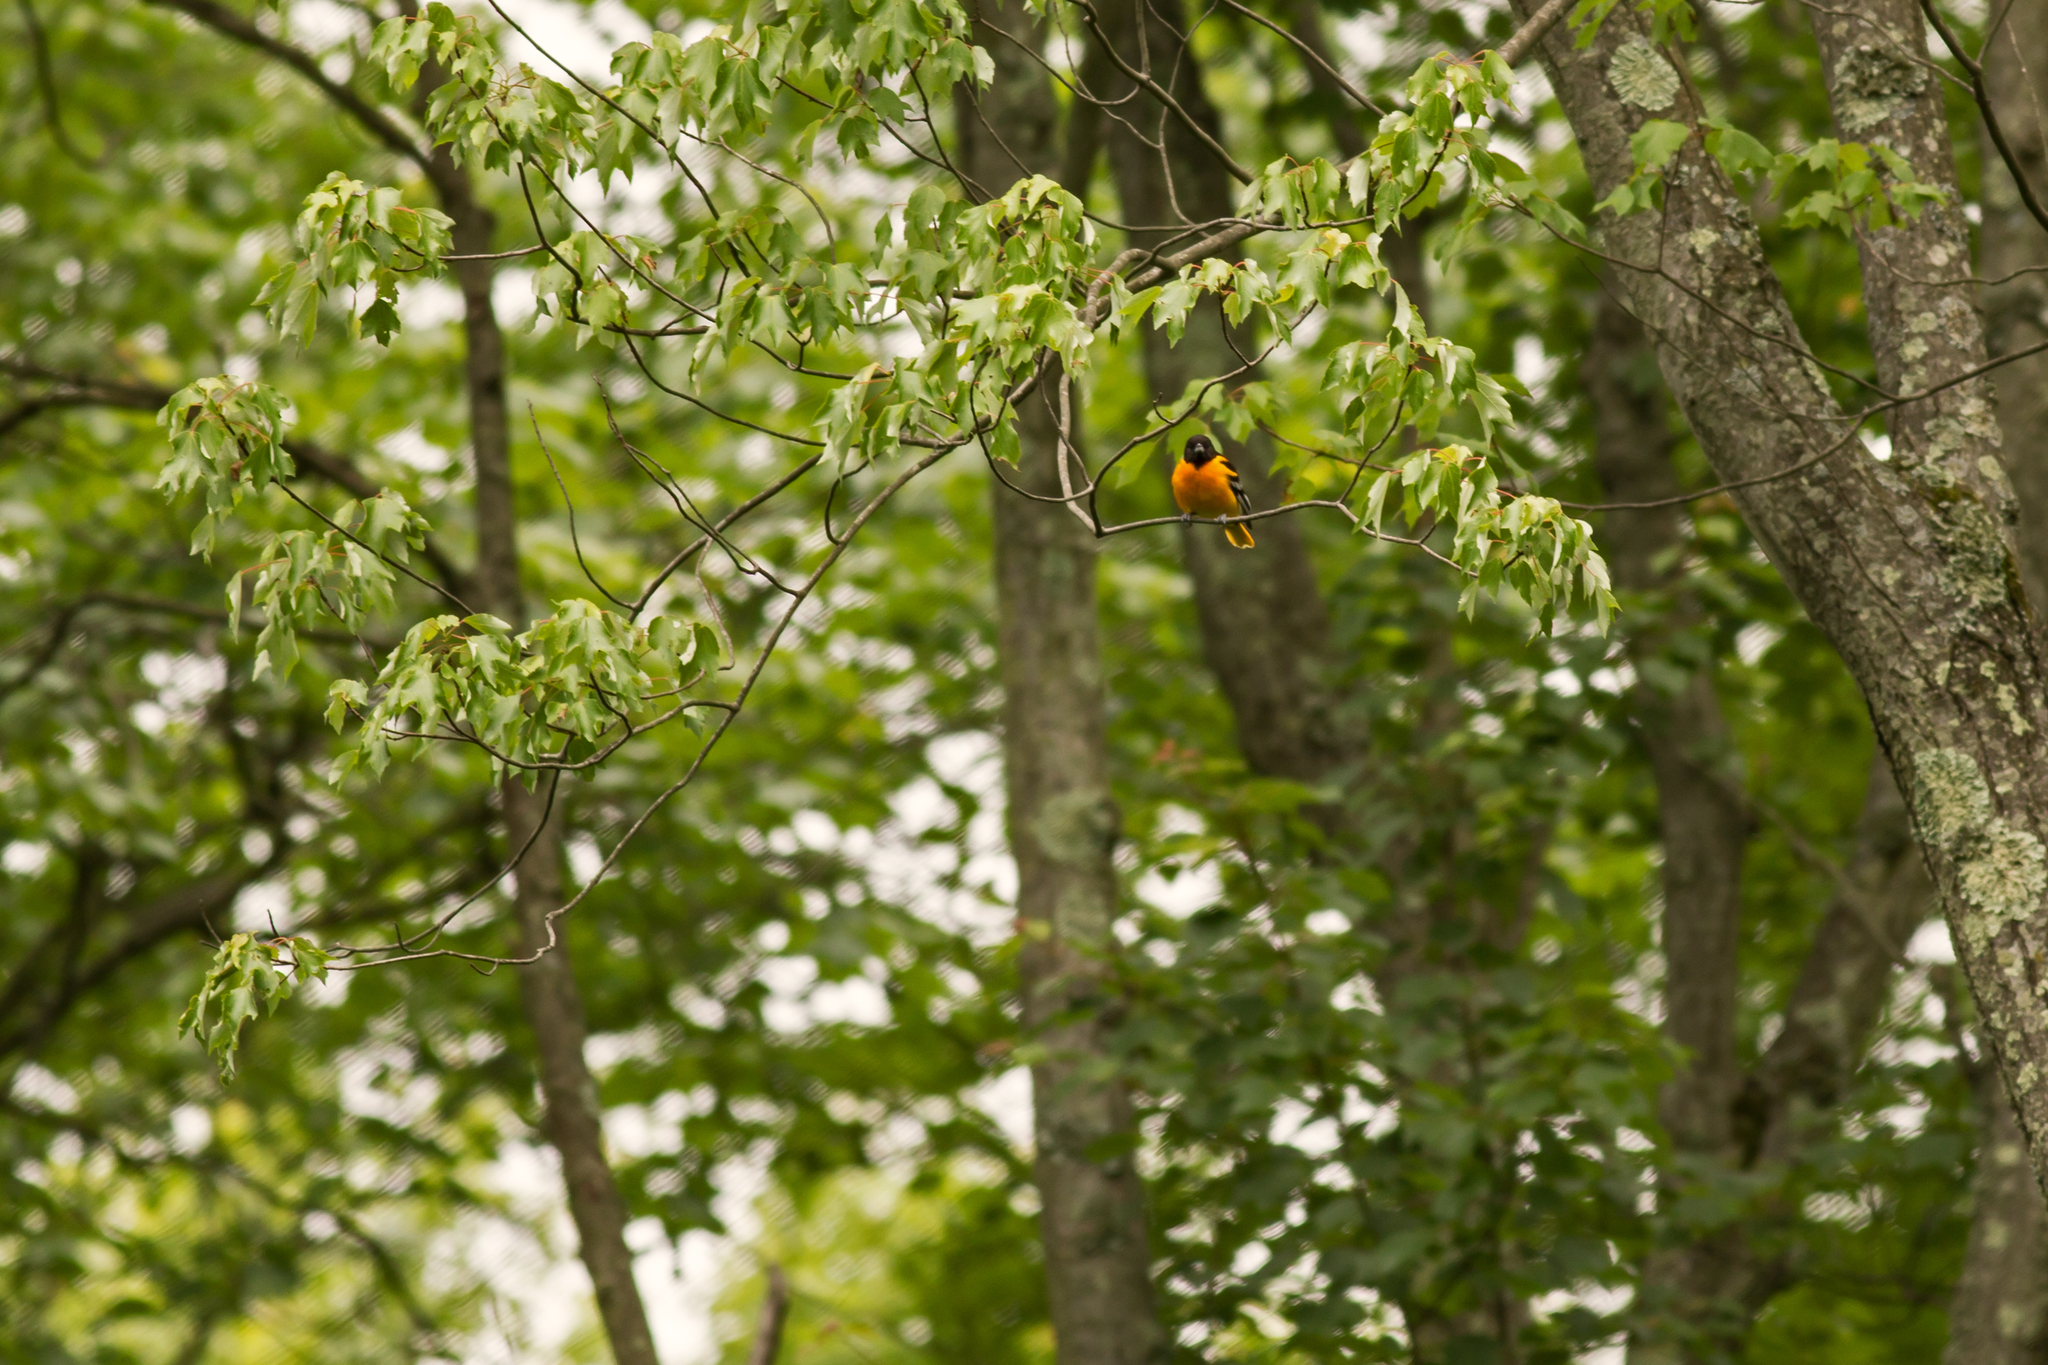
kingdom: Animalia
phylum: Chordata
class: Aves
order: Passeriformes
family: Icteridae
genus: Icterus
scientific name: Icterus galbula
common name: Baltimore oriole
